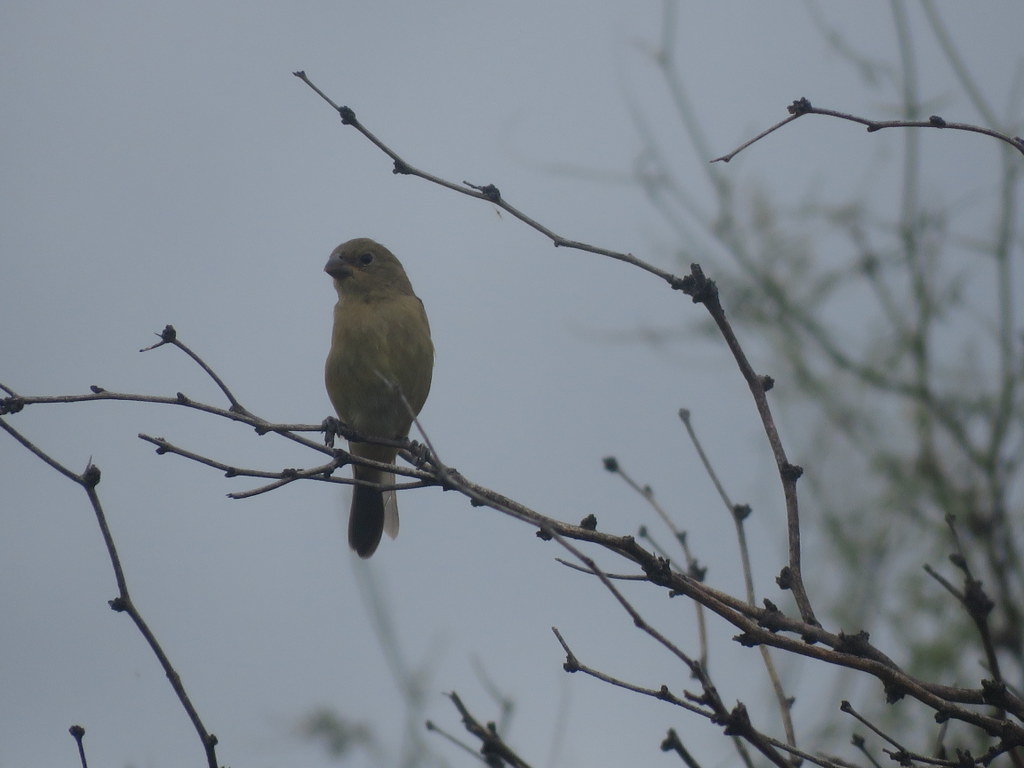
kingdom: Animalia
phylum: Chordata
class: Aves
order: Passeriformes
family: Thraupidae
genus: Sporophila
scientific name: Sporophila caerulescens
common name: Double-collared seedeater
